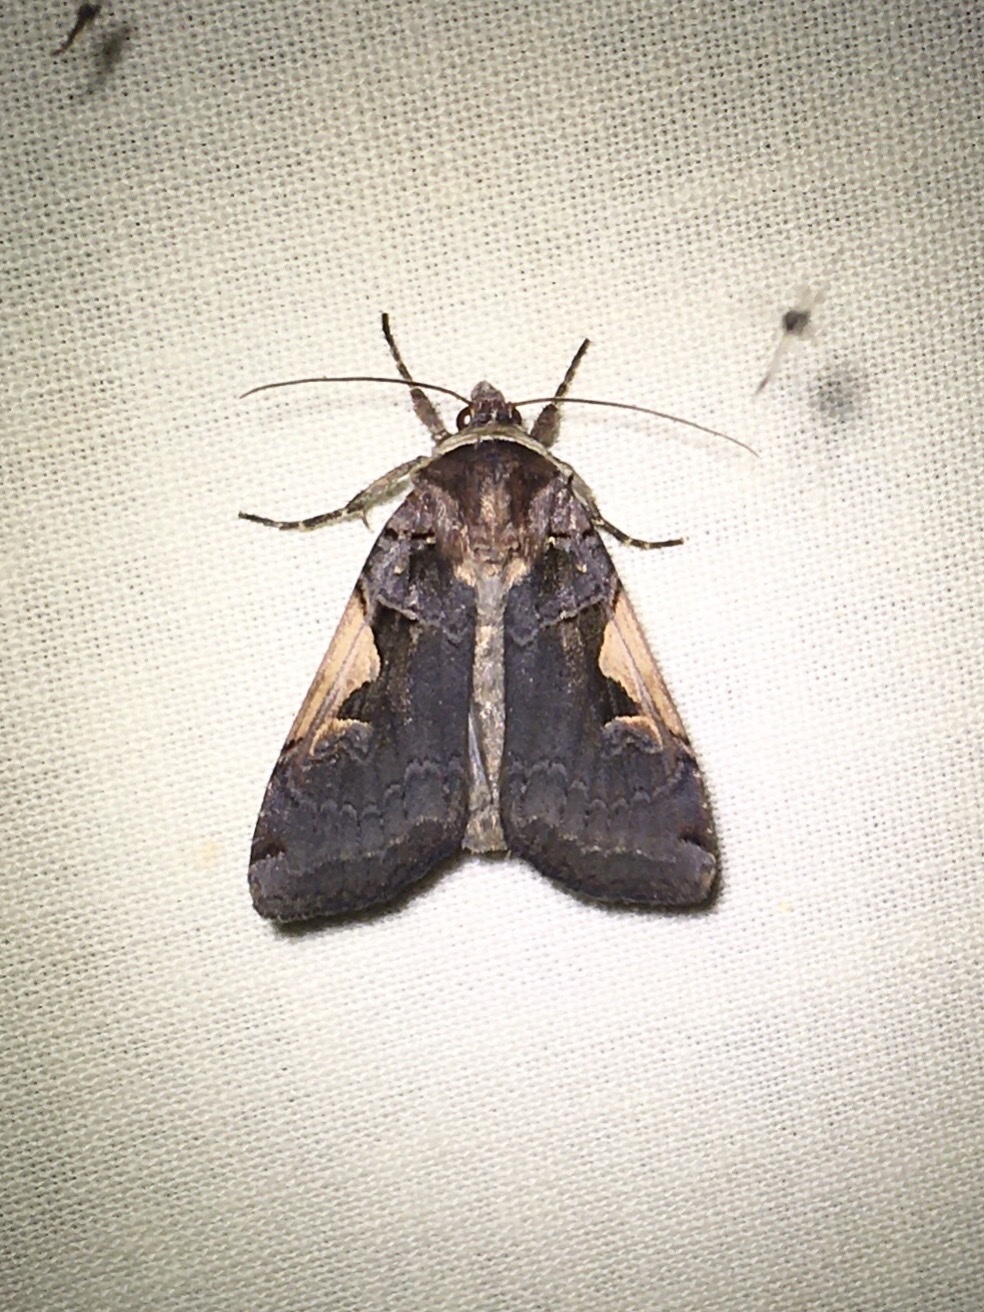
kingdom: Animalia
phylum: Arthropoda
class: Insecta
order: Lepidoptera
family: Noctuidae
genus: Xestia
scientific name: Xestia
